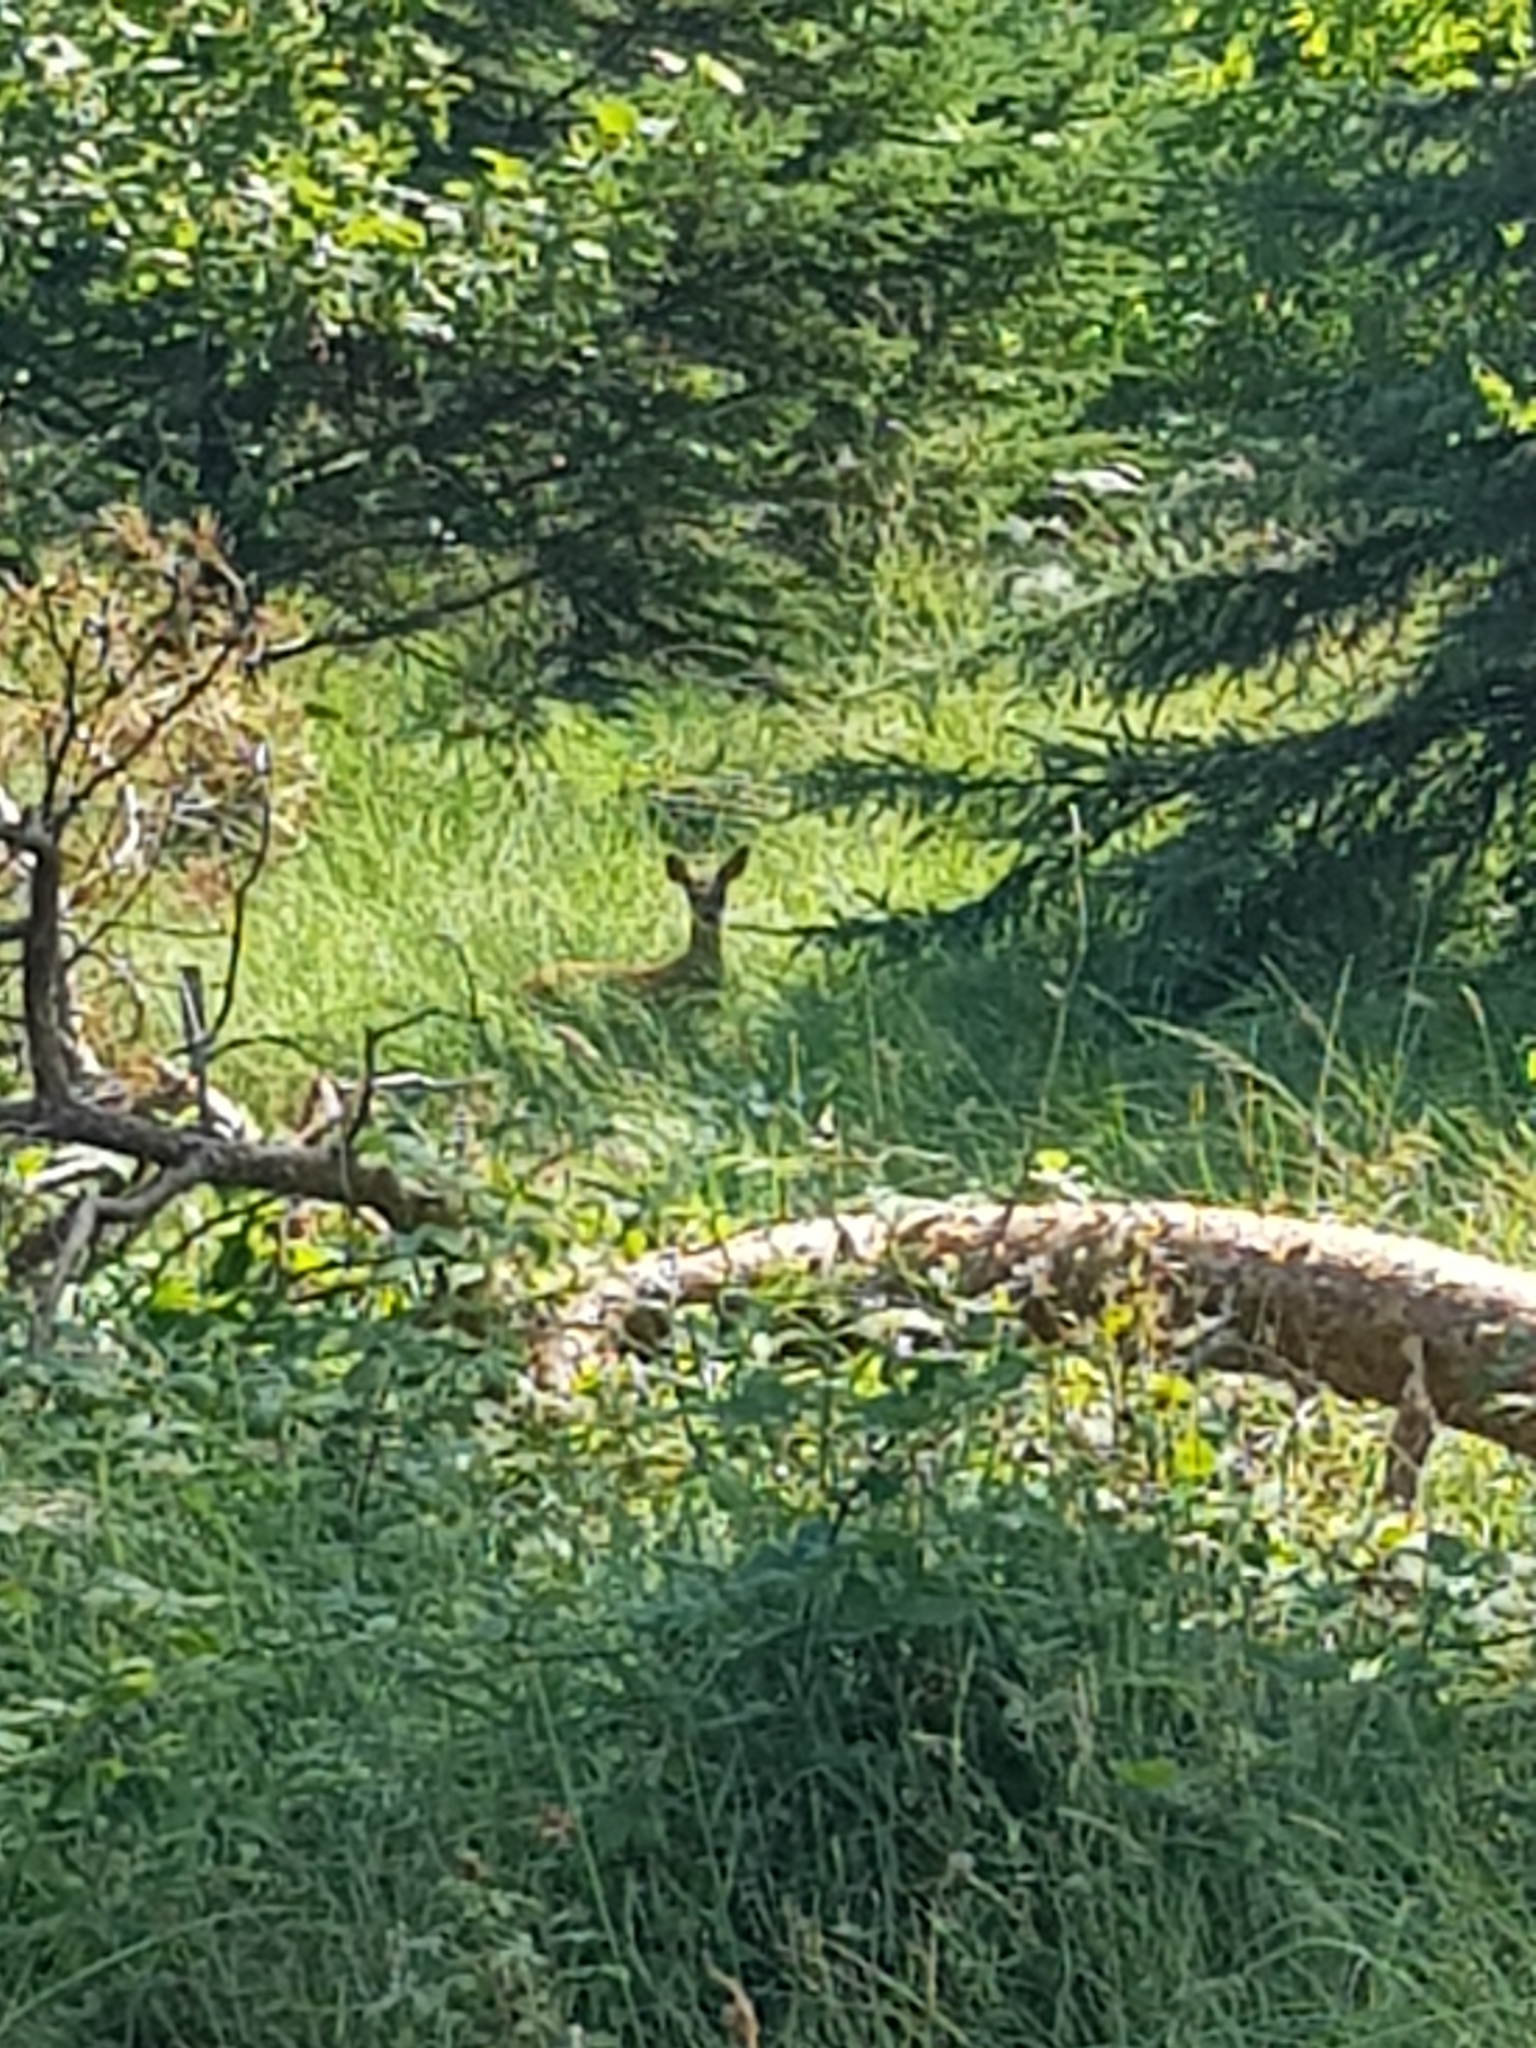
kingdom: Animalia
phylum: Chordata
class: Mammalia
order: Artiodactyla
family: Cervidae
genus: Capreolus
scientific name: Capreolus capreolus
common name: Western roe deer
